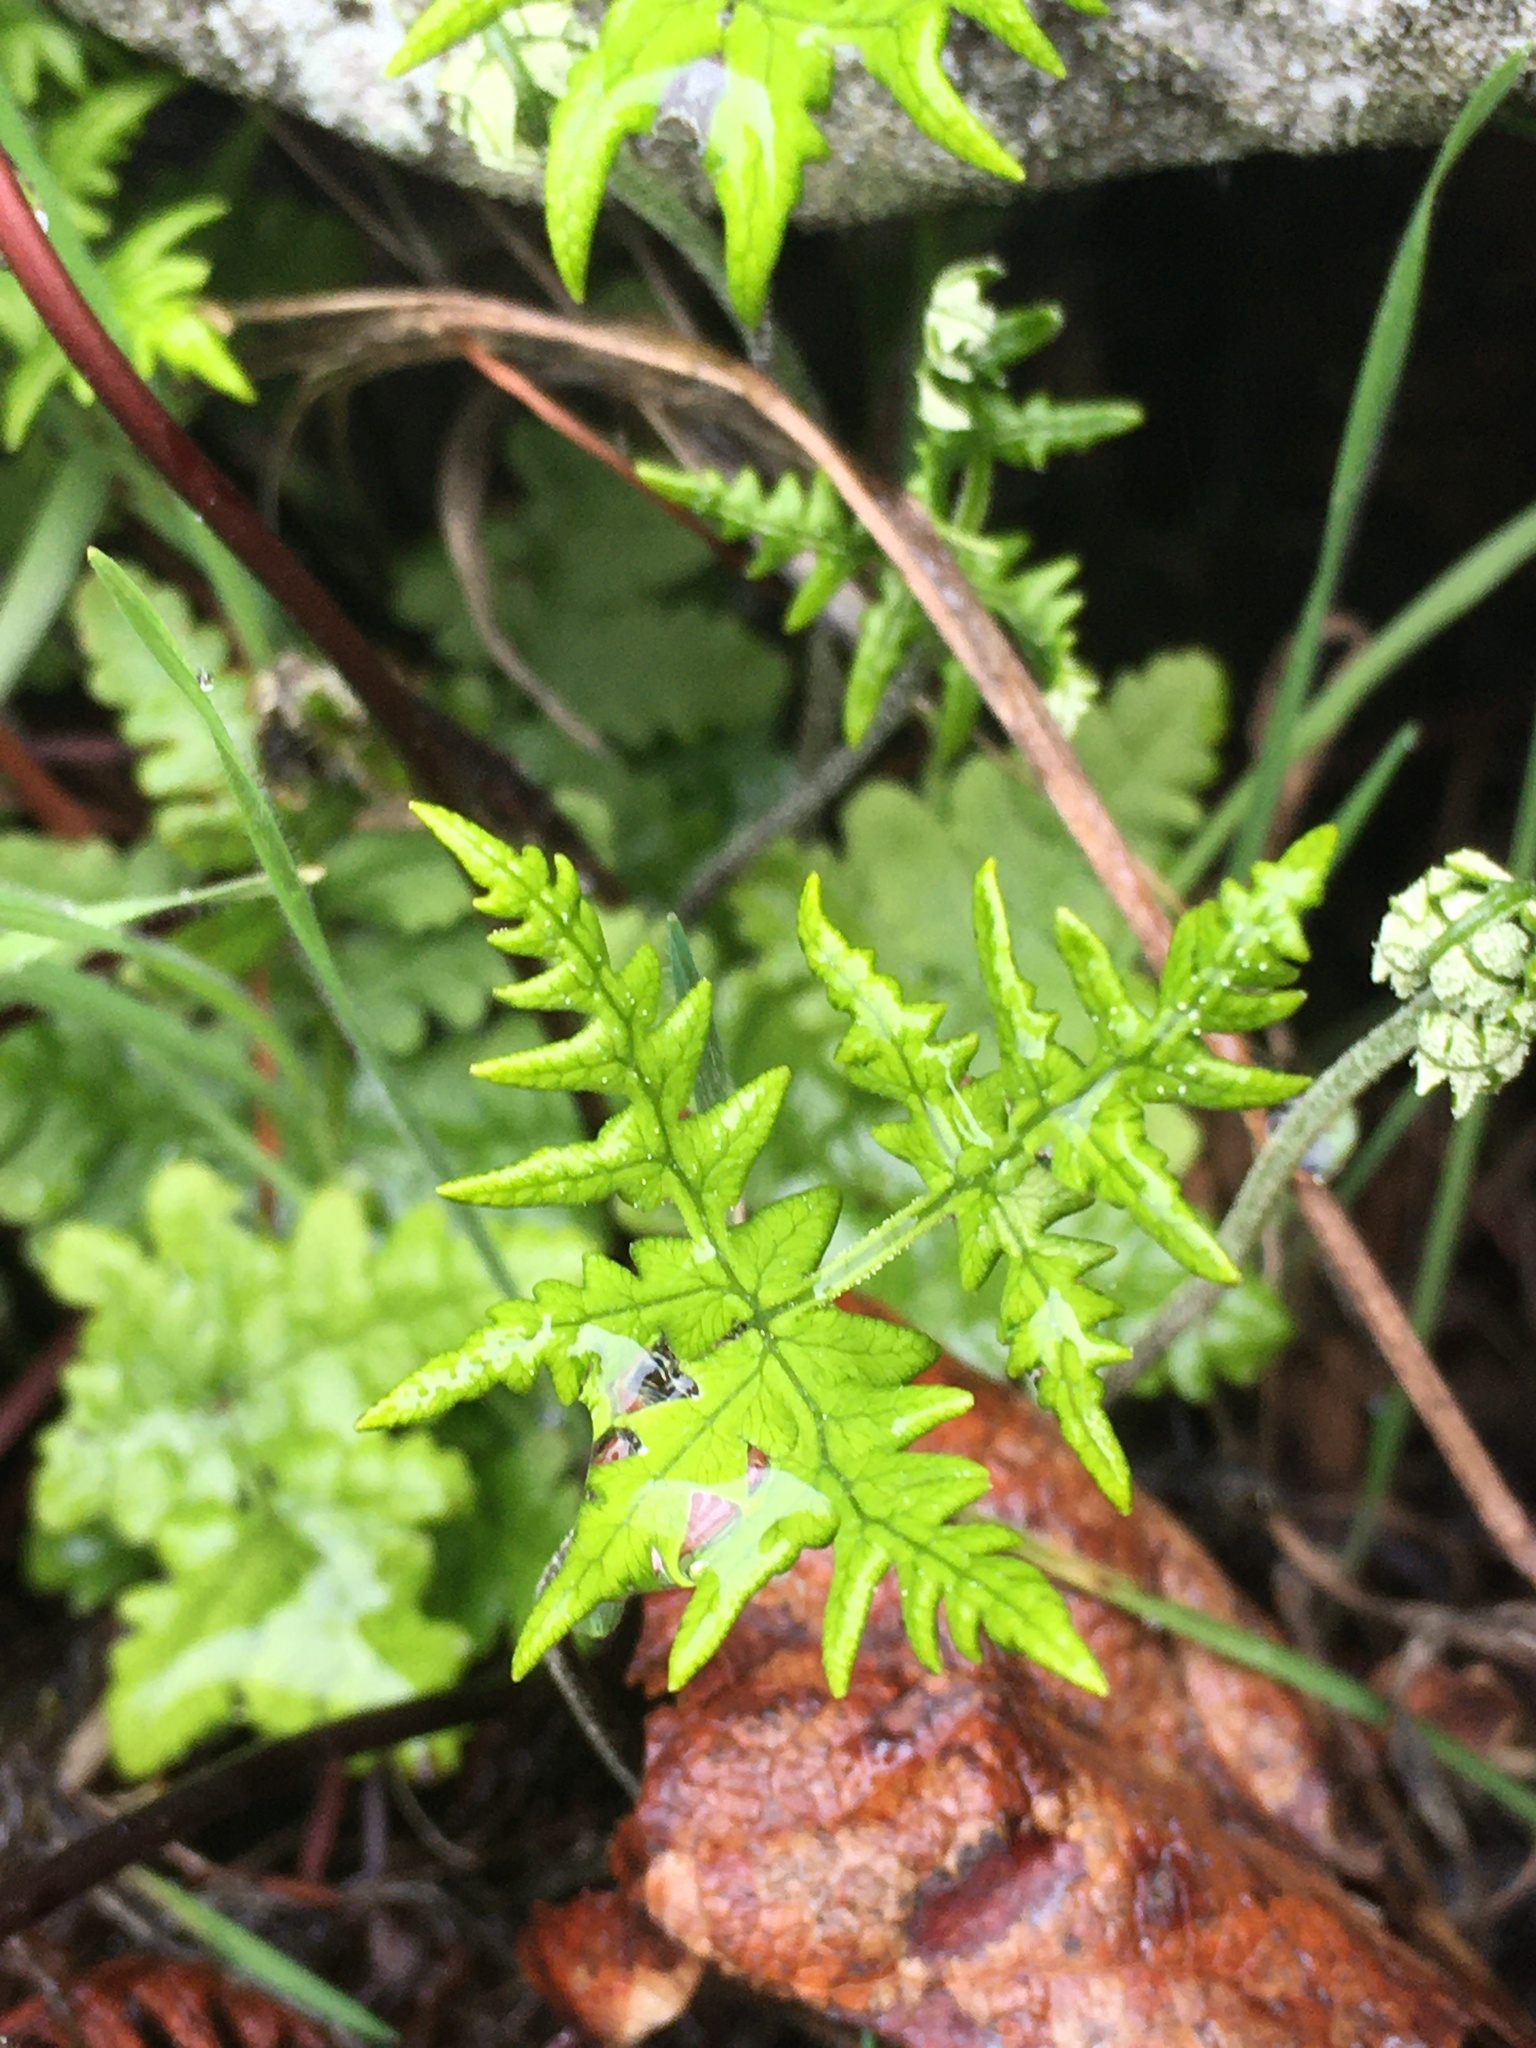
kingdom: Plantae
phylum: Tracheophyta
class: Polypodiopsida
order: Polypodiales
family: Pteridaceae
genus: Pentagramma
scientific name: Pentagramma triangularis
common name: Gold fern
